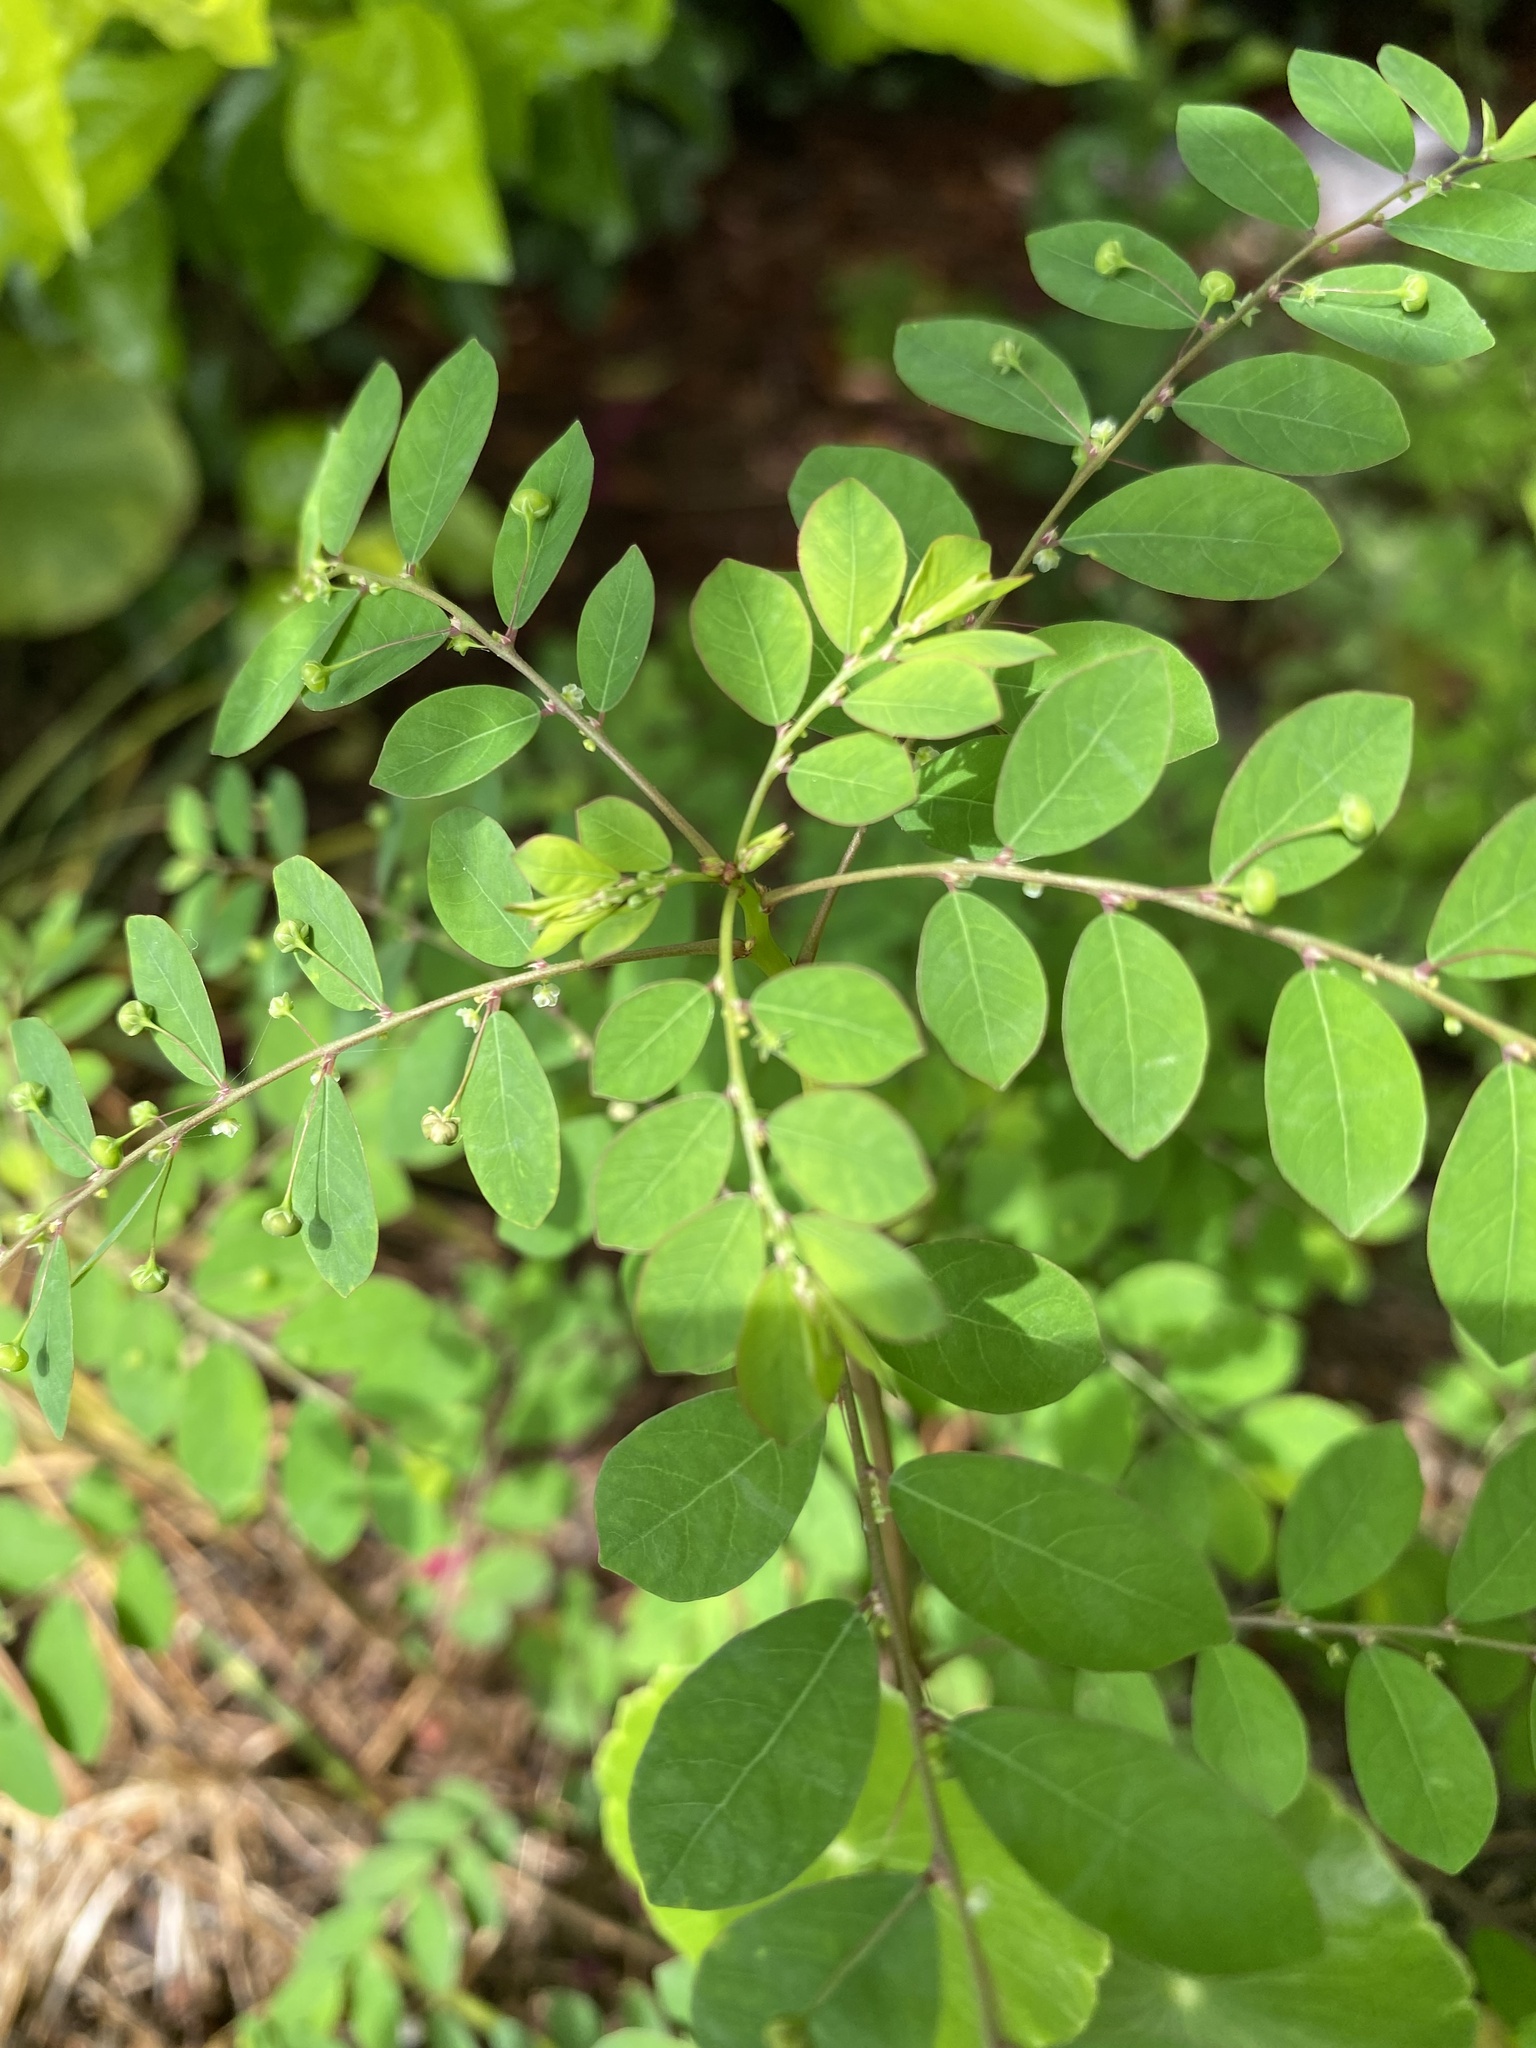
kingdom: Plantae
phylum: Tracheophyta
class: Magnoliopsida
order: Malpighiales
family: Phyllanthaceae
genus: Phyllanthus
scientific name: Phyllanthus tenellus
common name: Mascarene island leaf-flower
